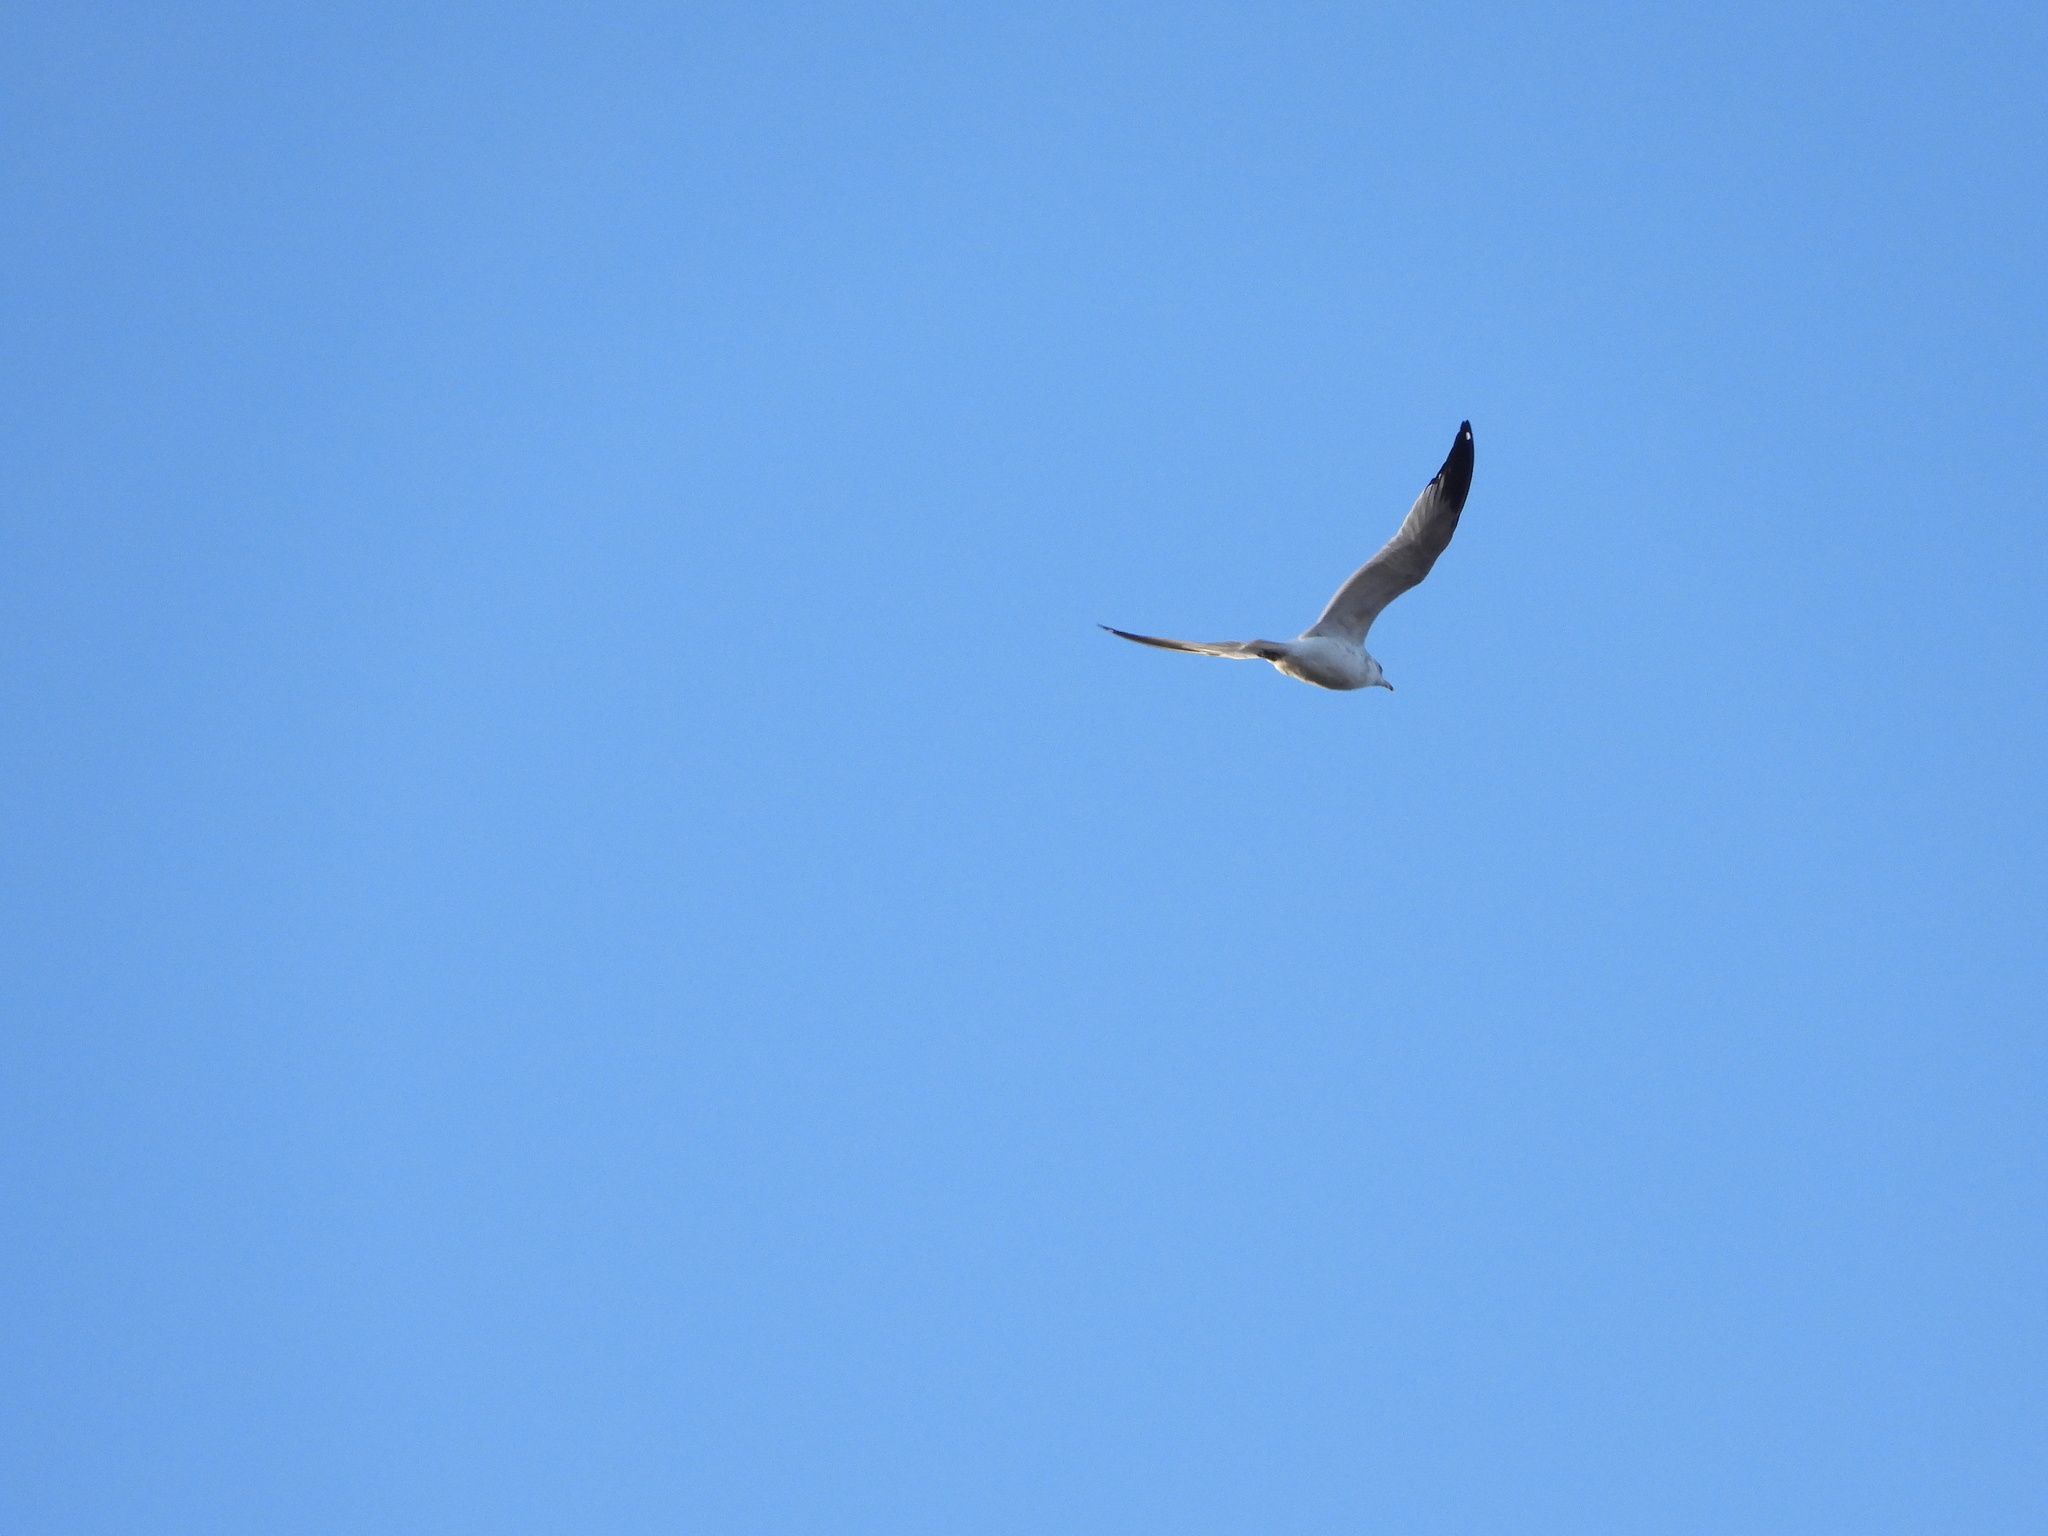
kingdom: Animalia
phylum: Chordata
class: Aves
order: Charadriiformes
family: Laridae
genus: Larus
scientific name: Larus delawarensis
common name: Ring-billed gull
